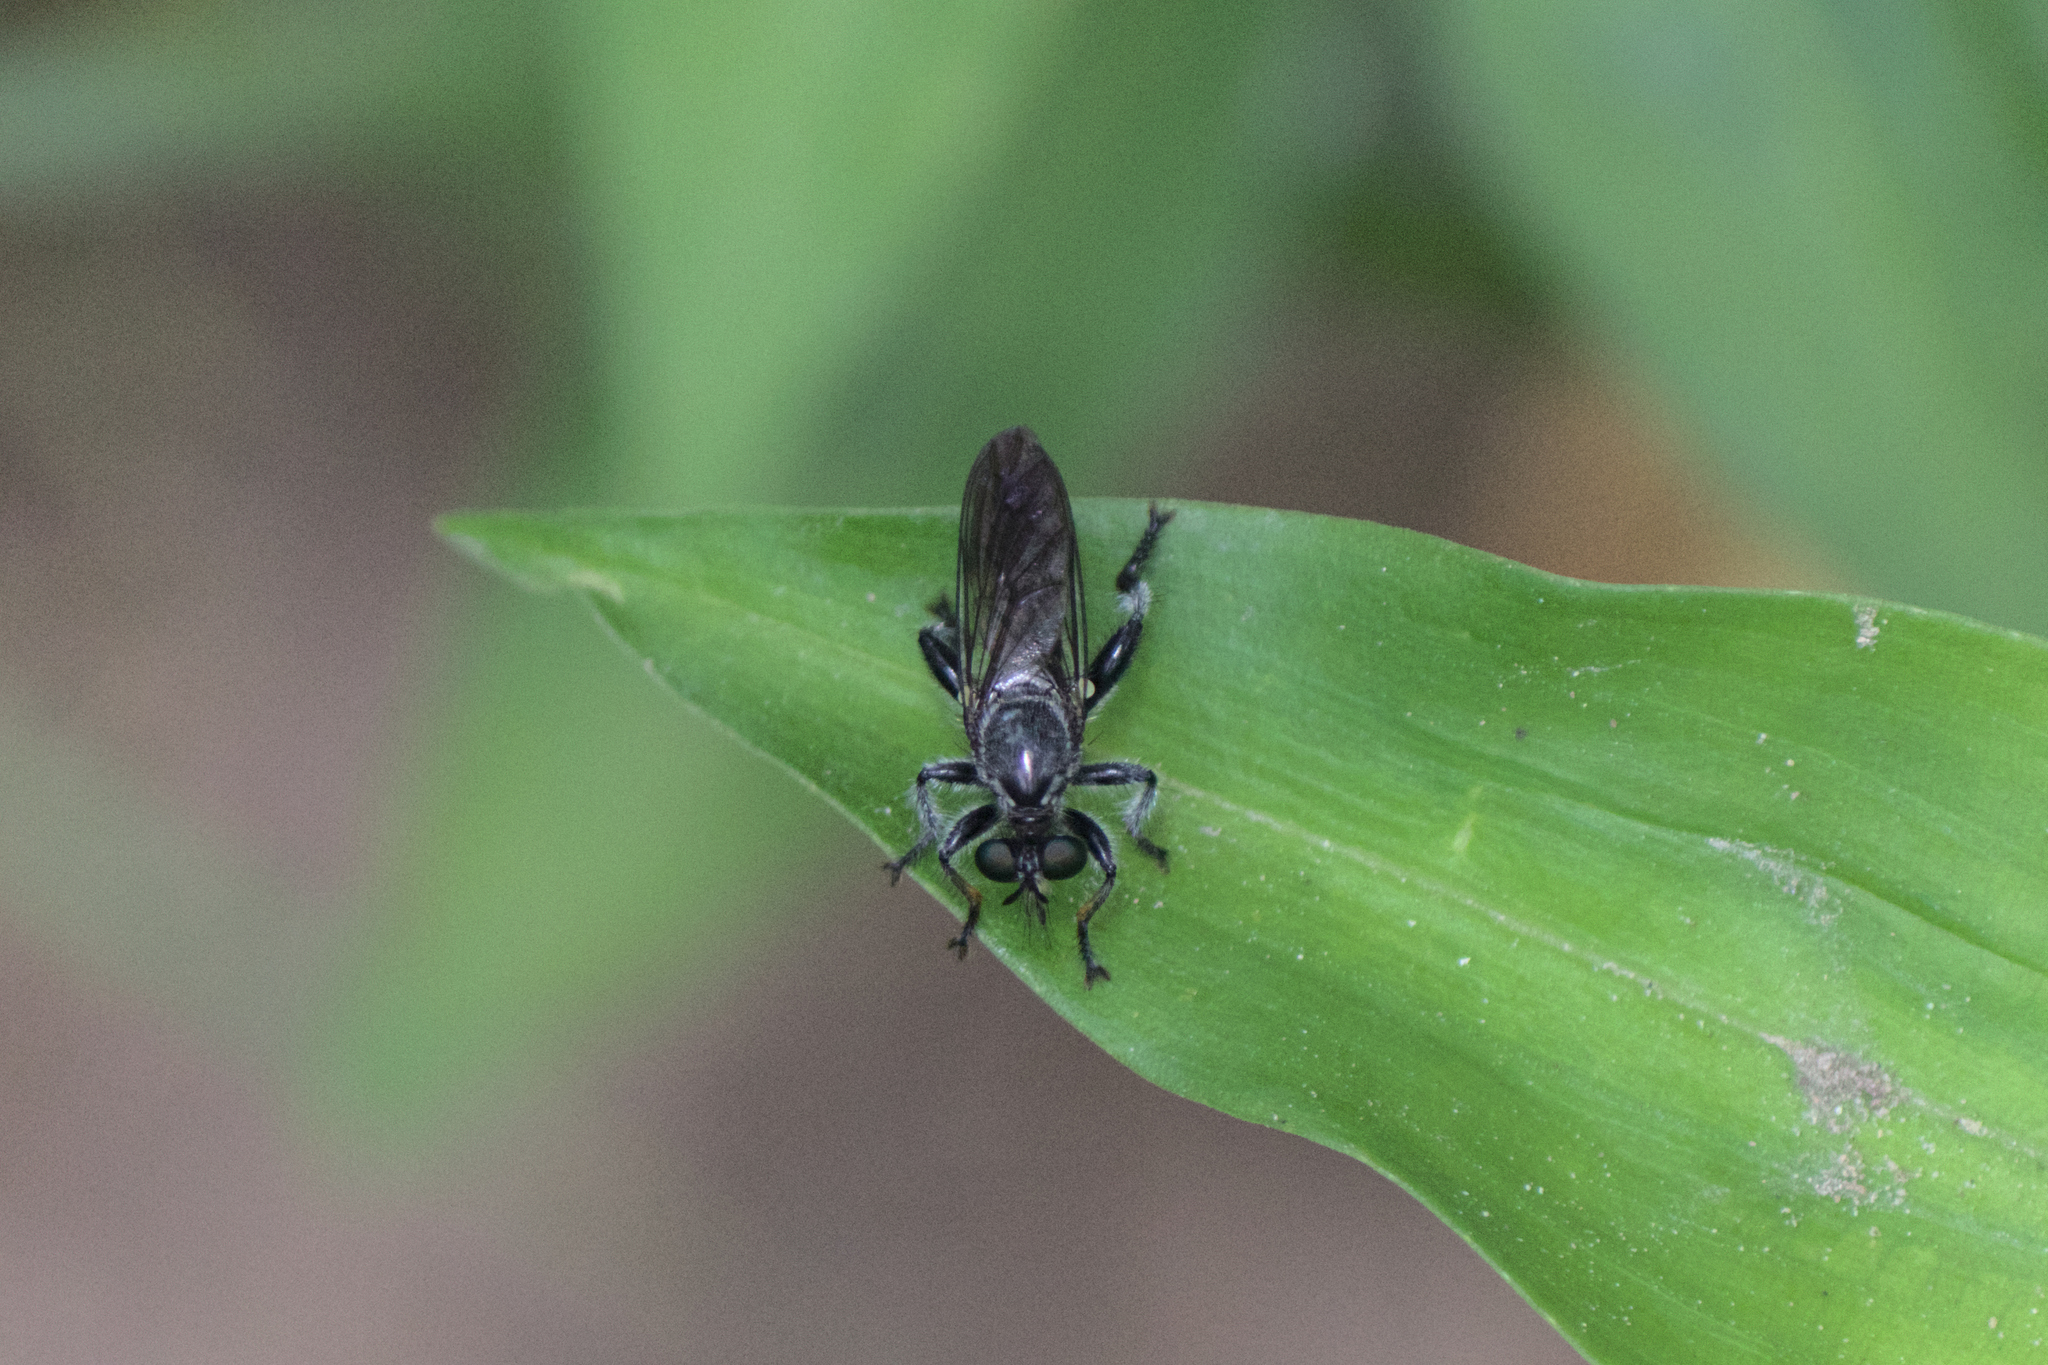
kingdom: Animalia
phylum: Arthropoda
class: Insecta
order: Diptera
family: Asilidae
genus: Laphria
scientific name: Laphria
